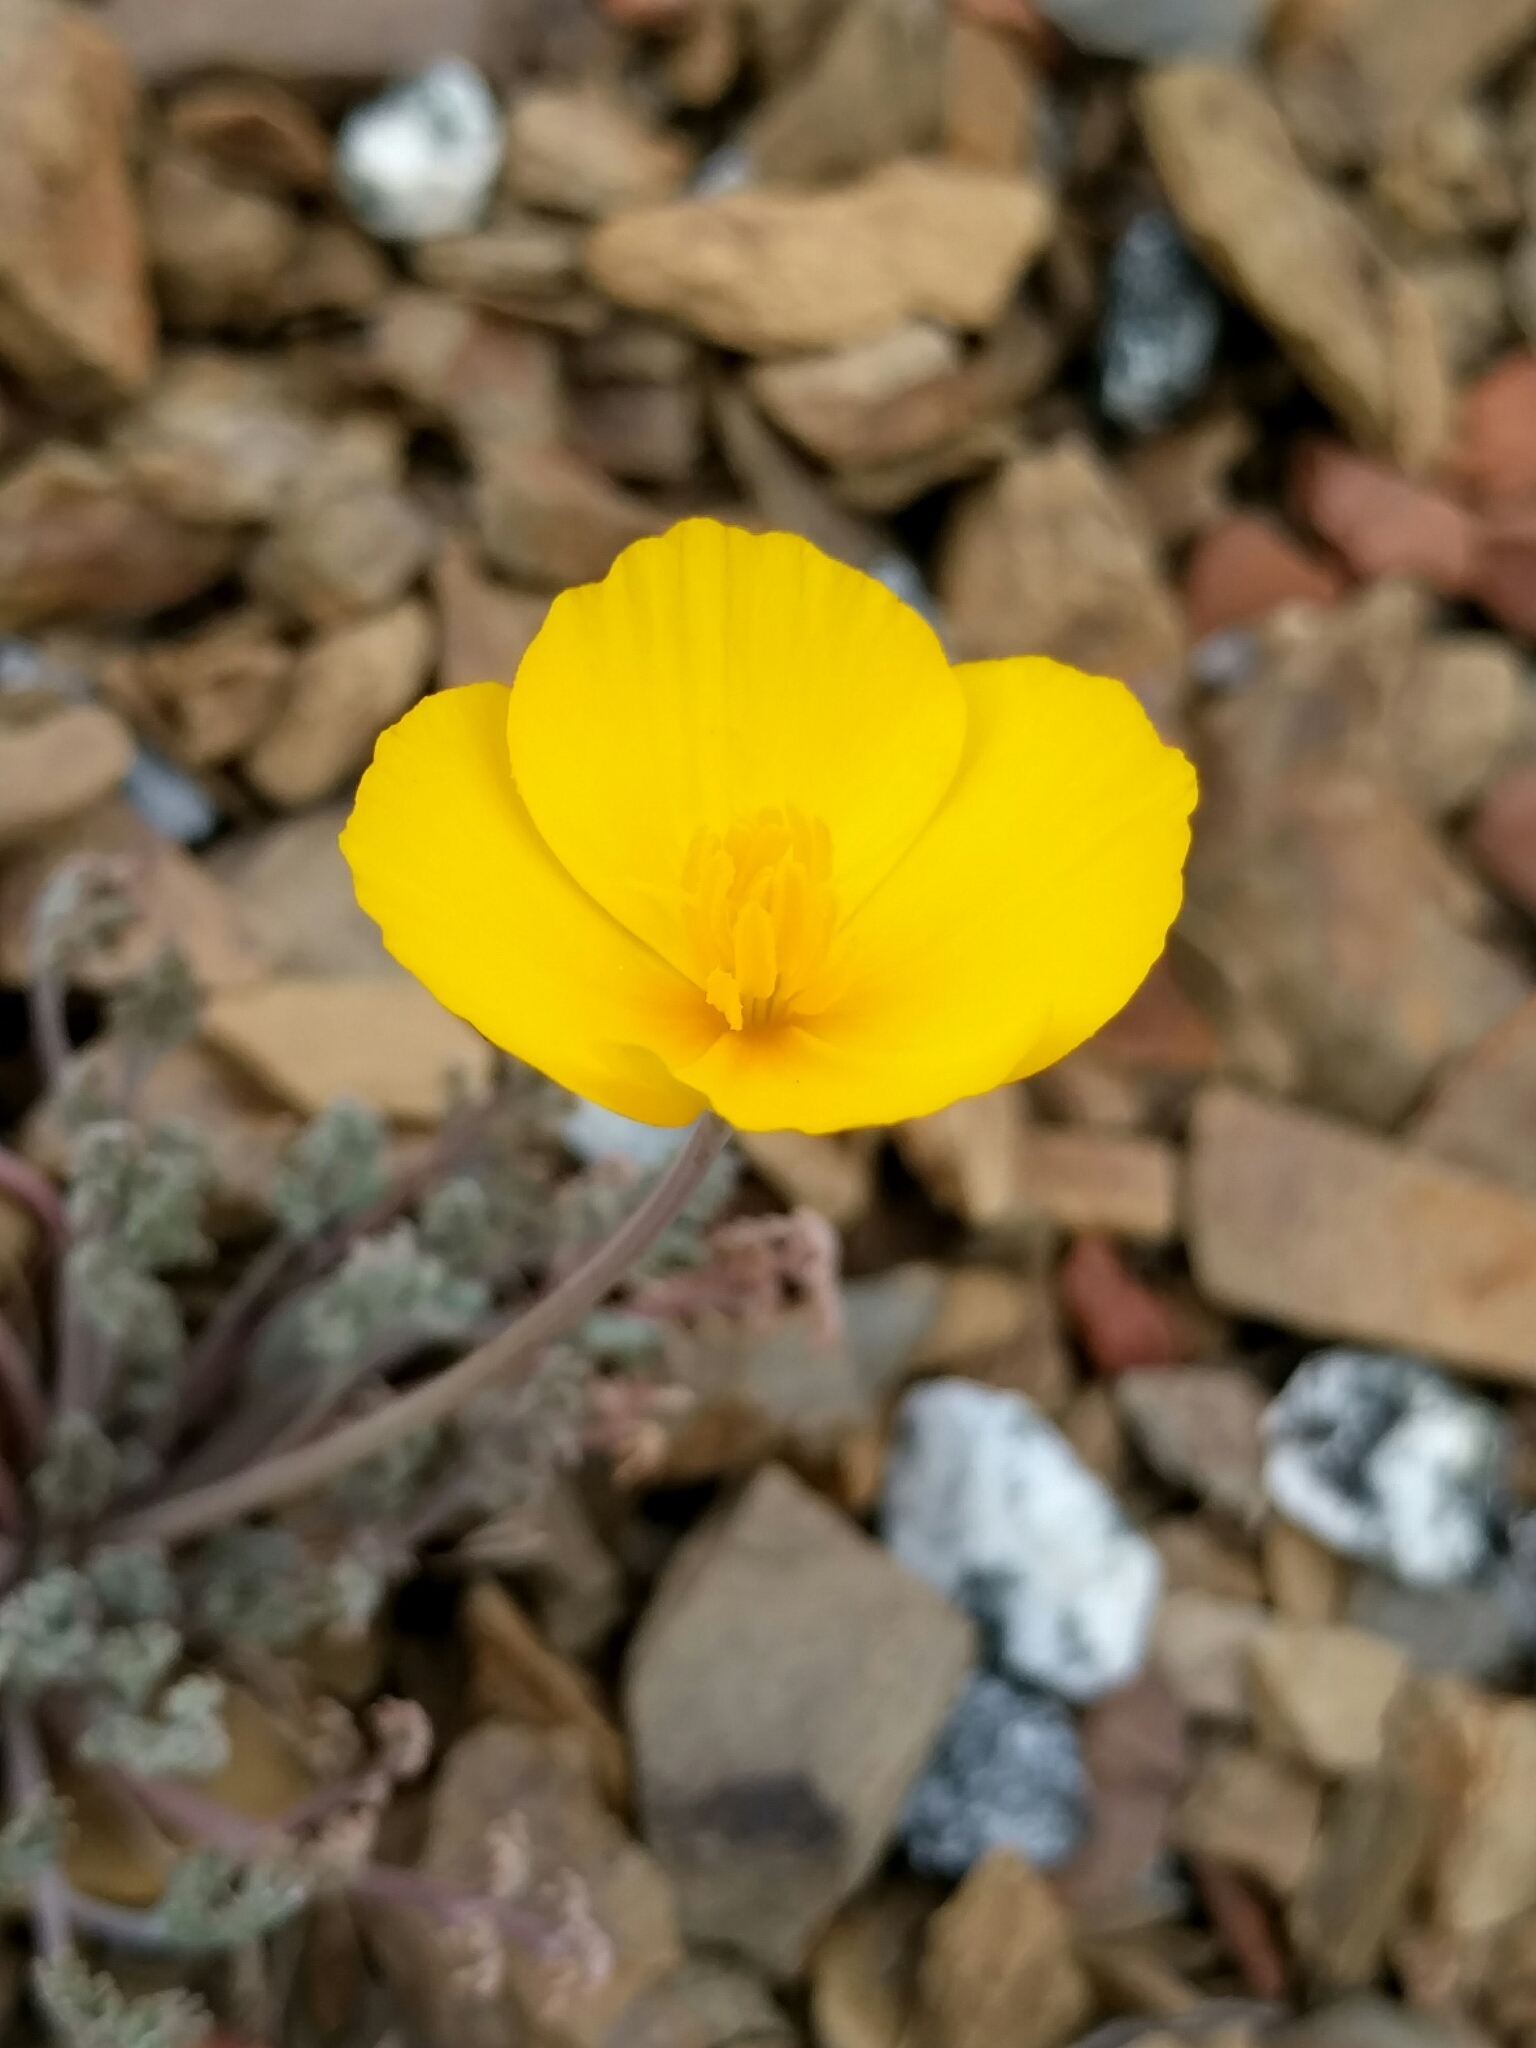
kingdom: Plantae
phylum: Tracheophyta
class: Magnoliopsida
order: Ranunculales
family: Papaveraceae
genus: Eschscholzia
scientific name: Eschscholzia caespitosa
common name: Tufted california-poppy
